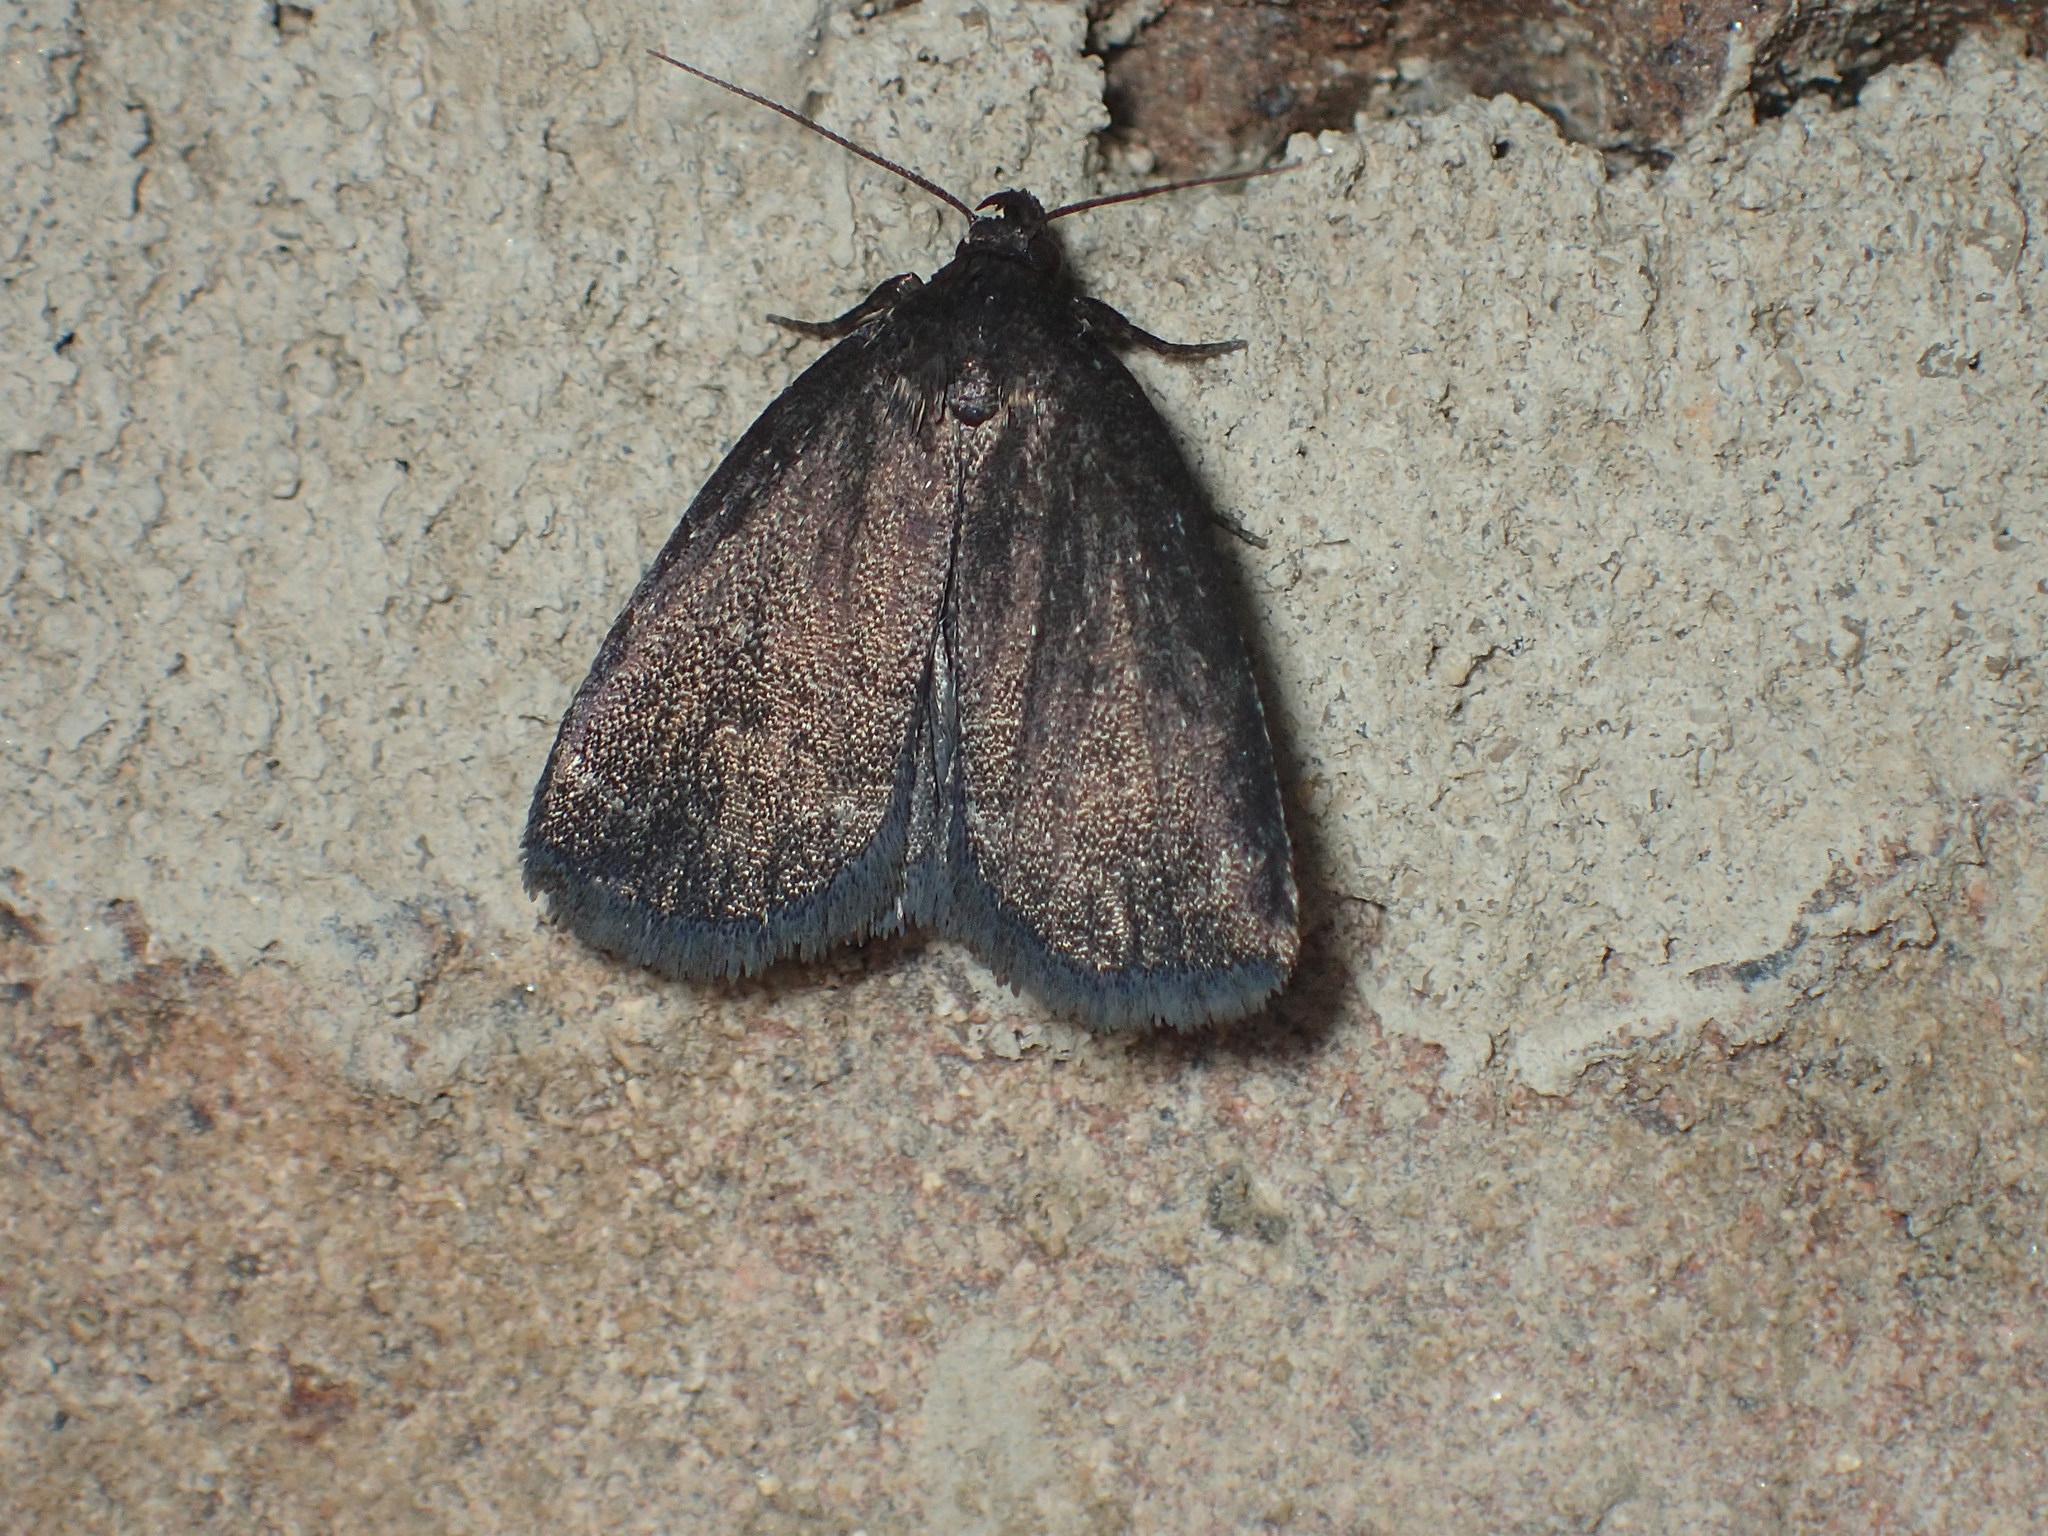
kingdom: Animalia
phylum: Arthropoda
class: Insecta
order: Lepidoptera
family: Erebidae
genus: Idia
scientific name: Idia rotundalis
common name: Rotund idia moth
